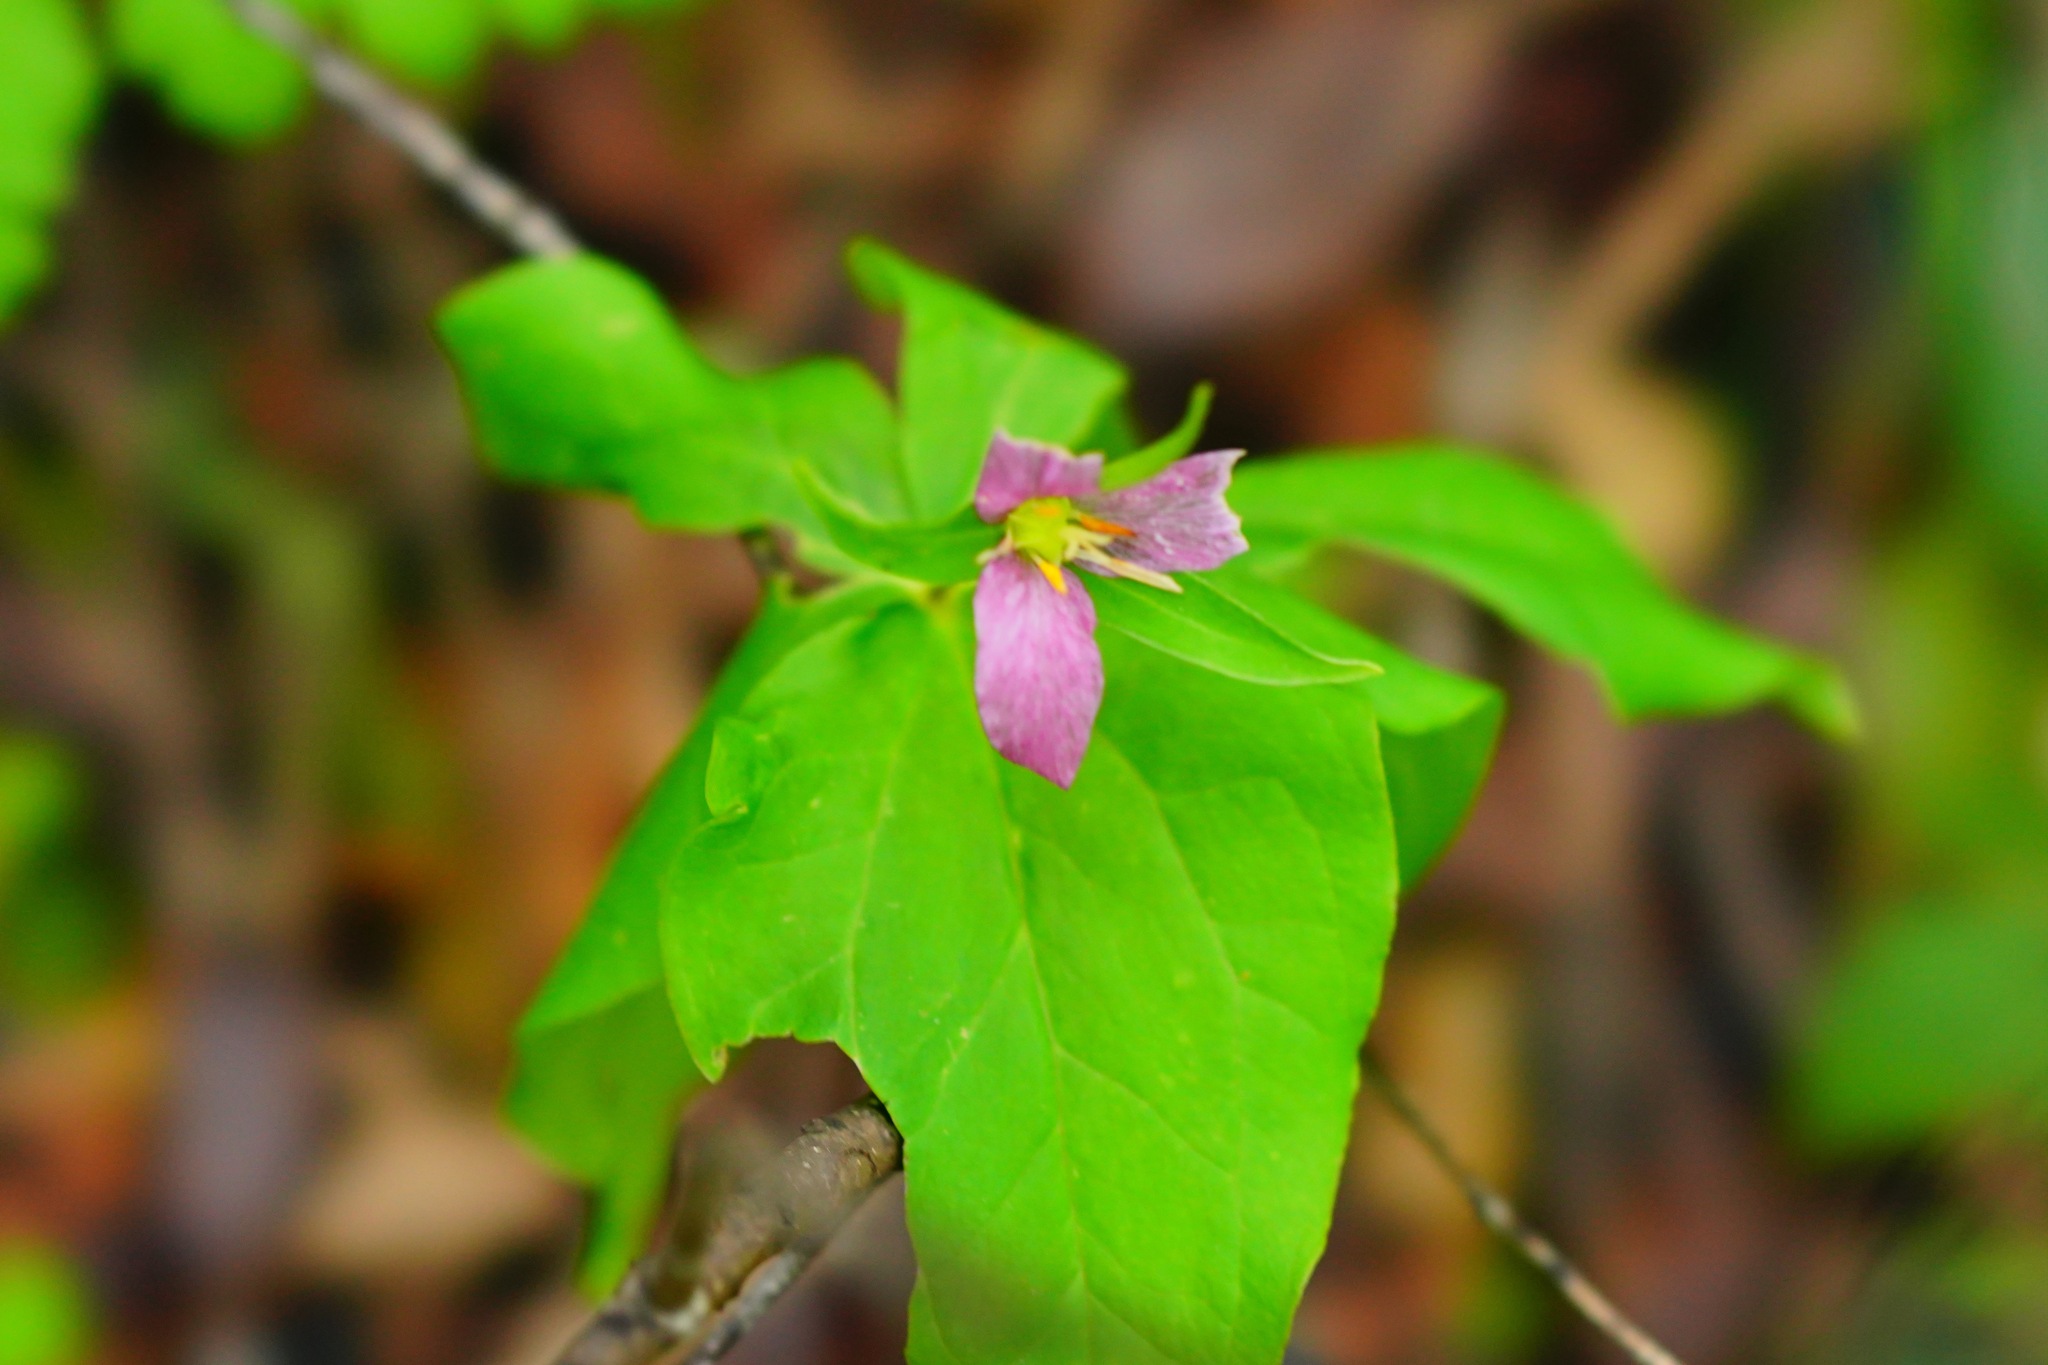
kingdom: Plantae
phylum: Tracheophyta
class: Liliopsida
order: Liliales
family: Melanthiaceae
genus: Trillium
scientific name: Trillium ovatum
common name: Pacific trillium
